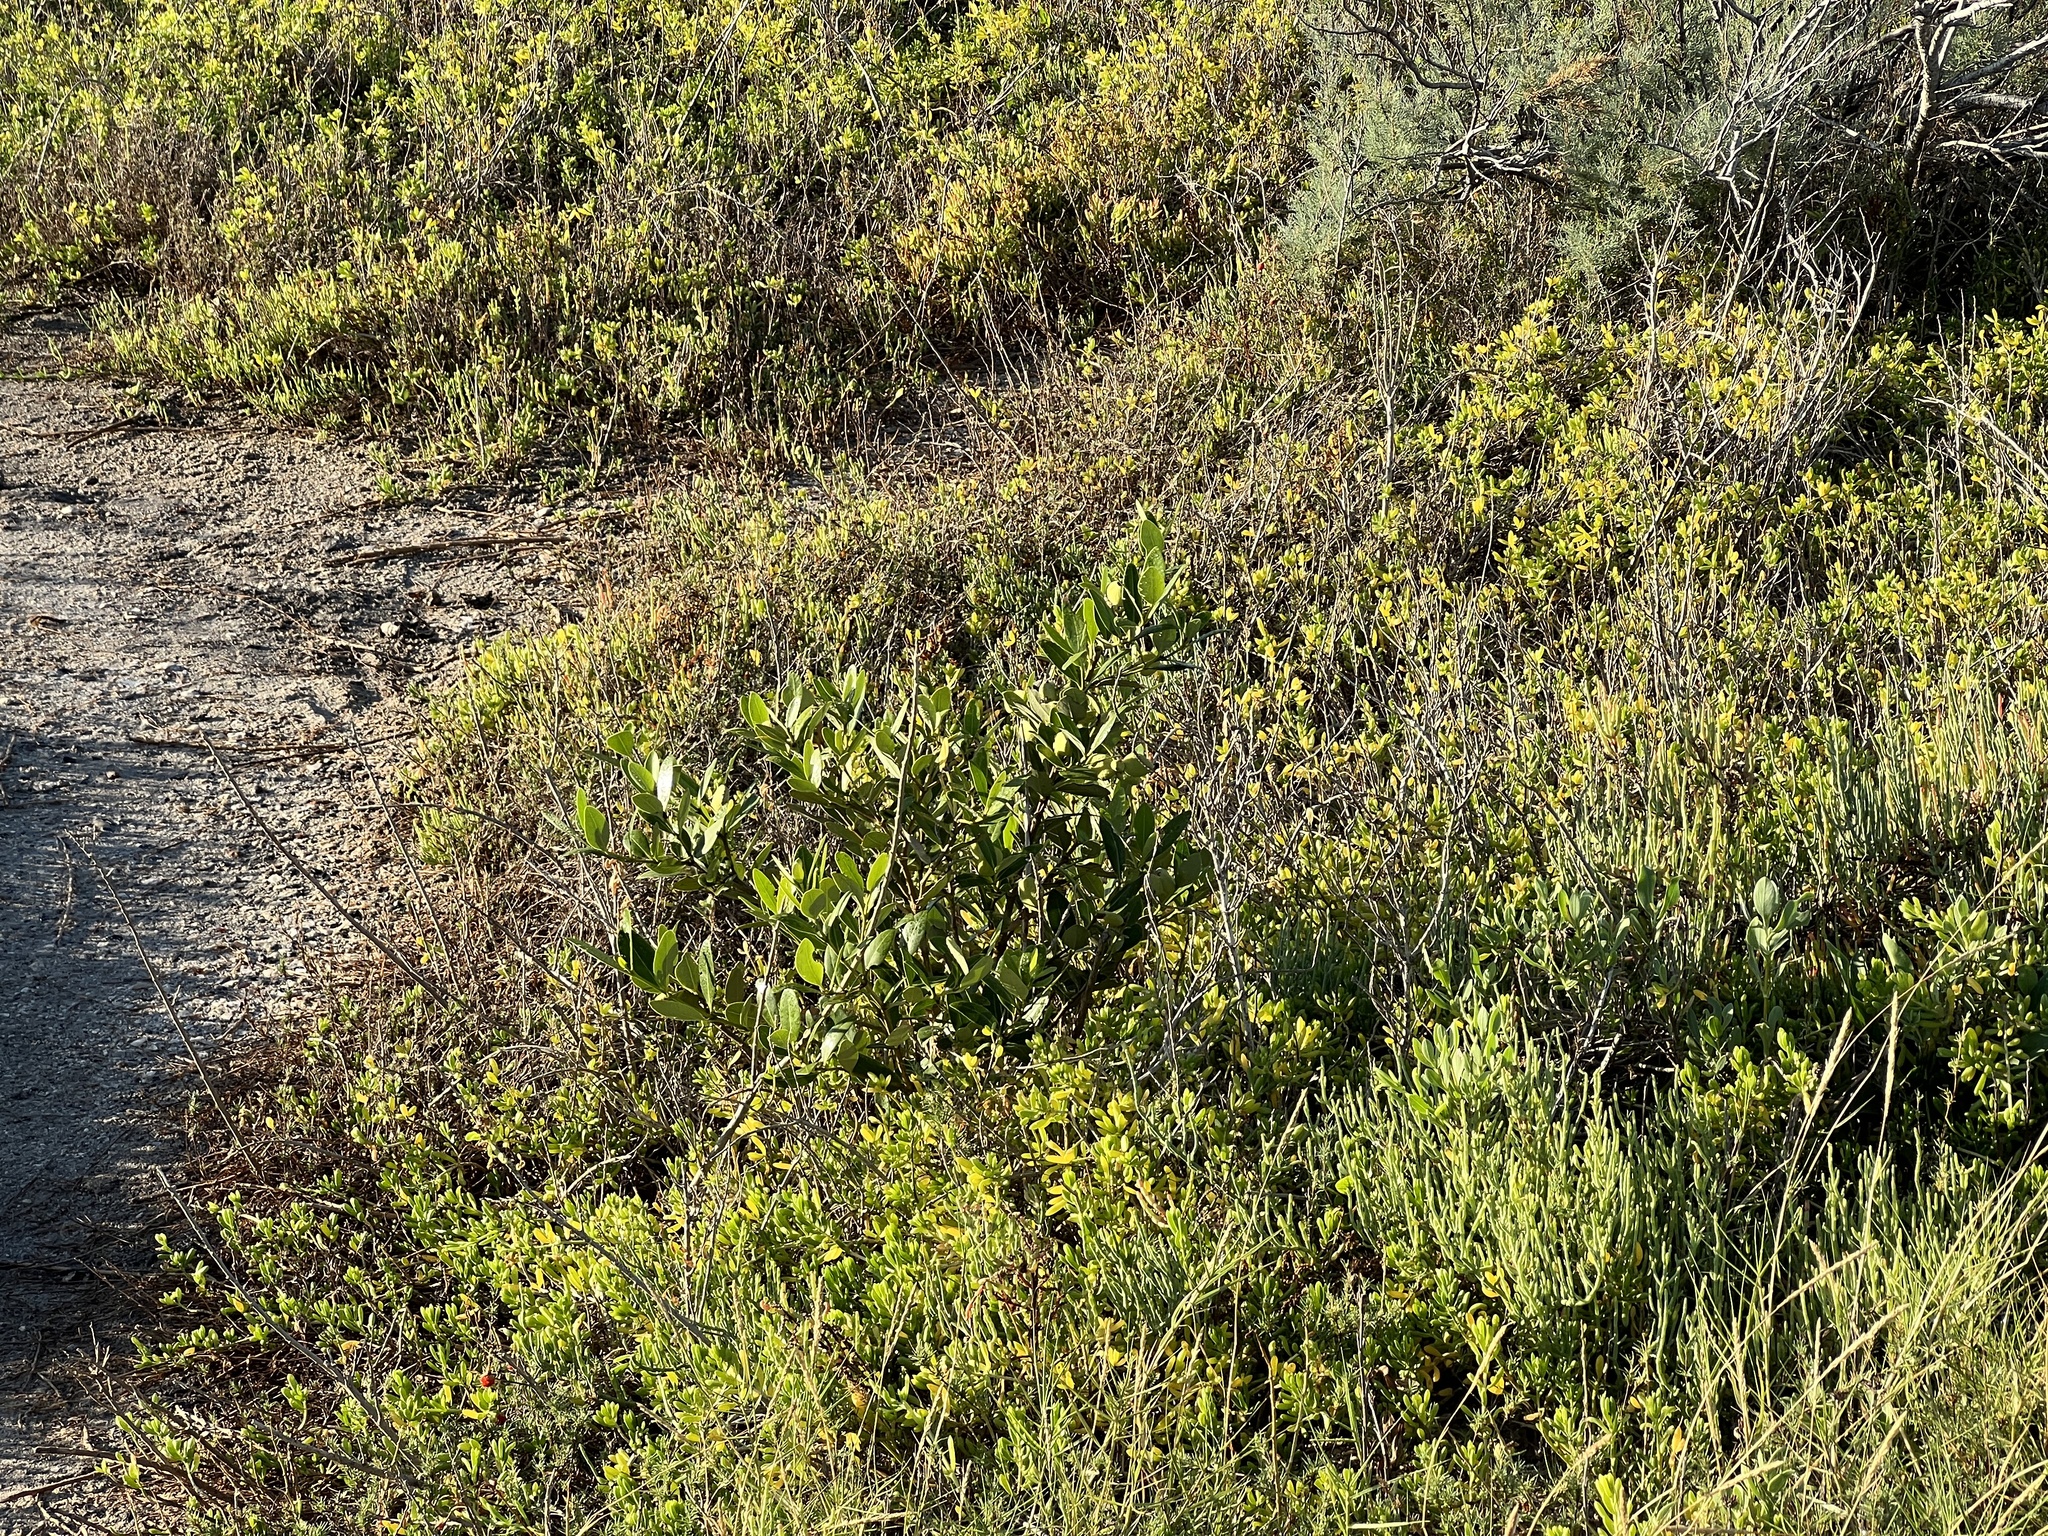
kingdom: Plantae
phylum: Tracheophyta
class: Magnoliopsida
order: Lamiales
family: Acanthaceae
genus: Avicennia
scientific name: Avicennia germinans
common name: Black mangrove
